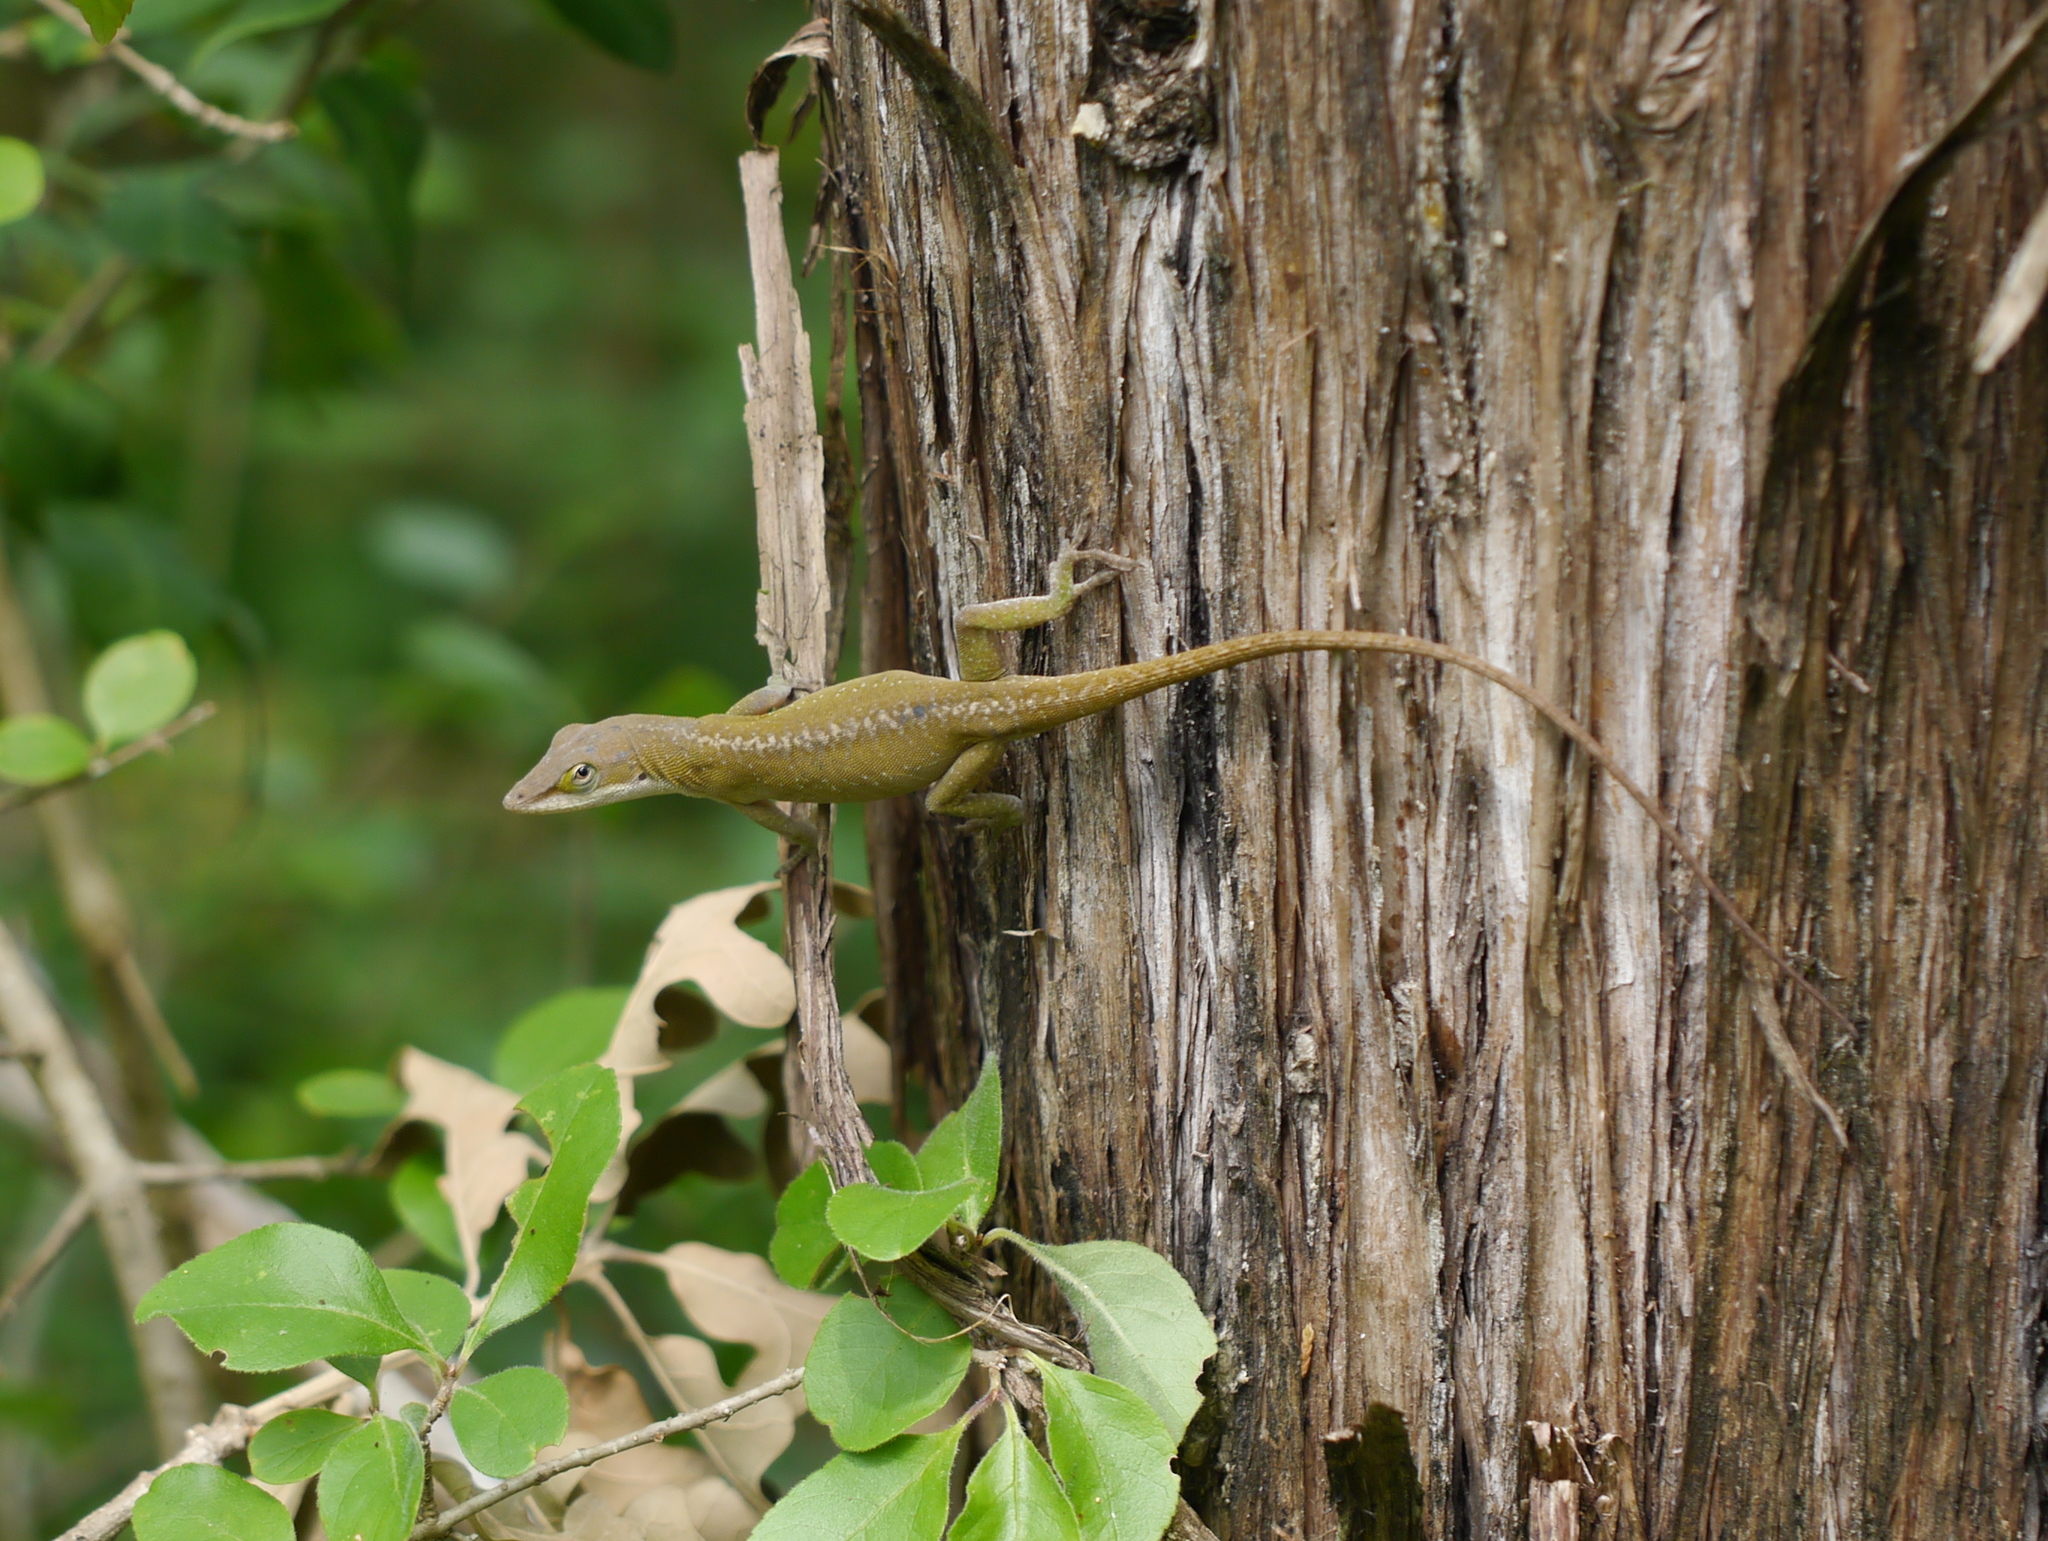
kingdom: Animalia
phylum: Chordata
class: Squamata
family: Dactyloidae
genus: Anolis
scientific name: Anolis carolinensis
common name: Green anole
